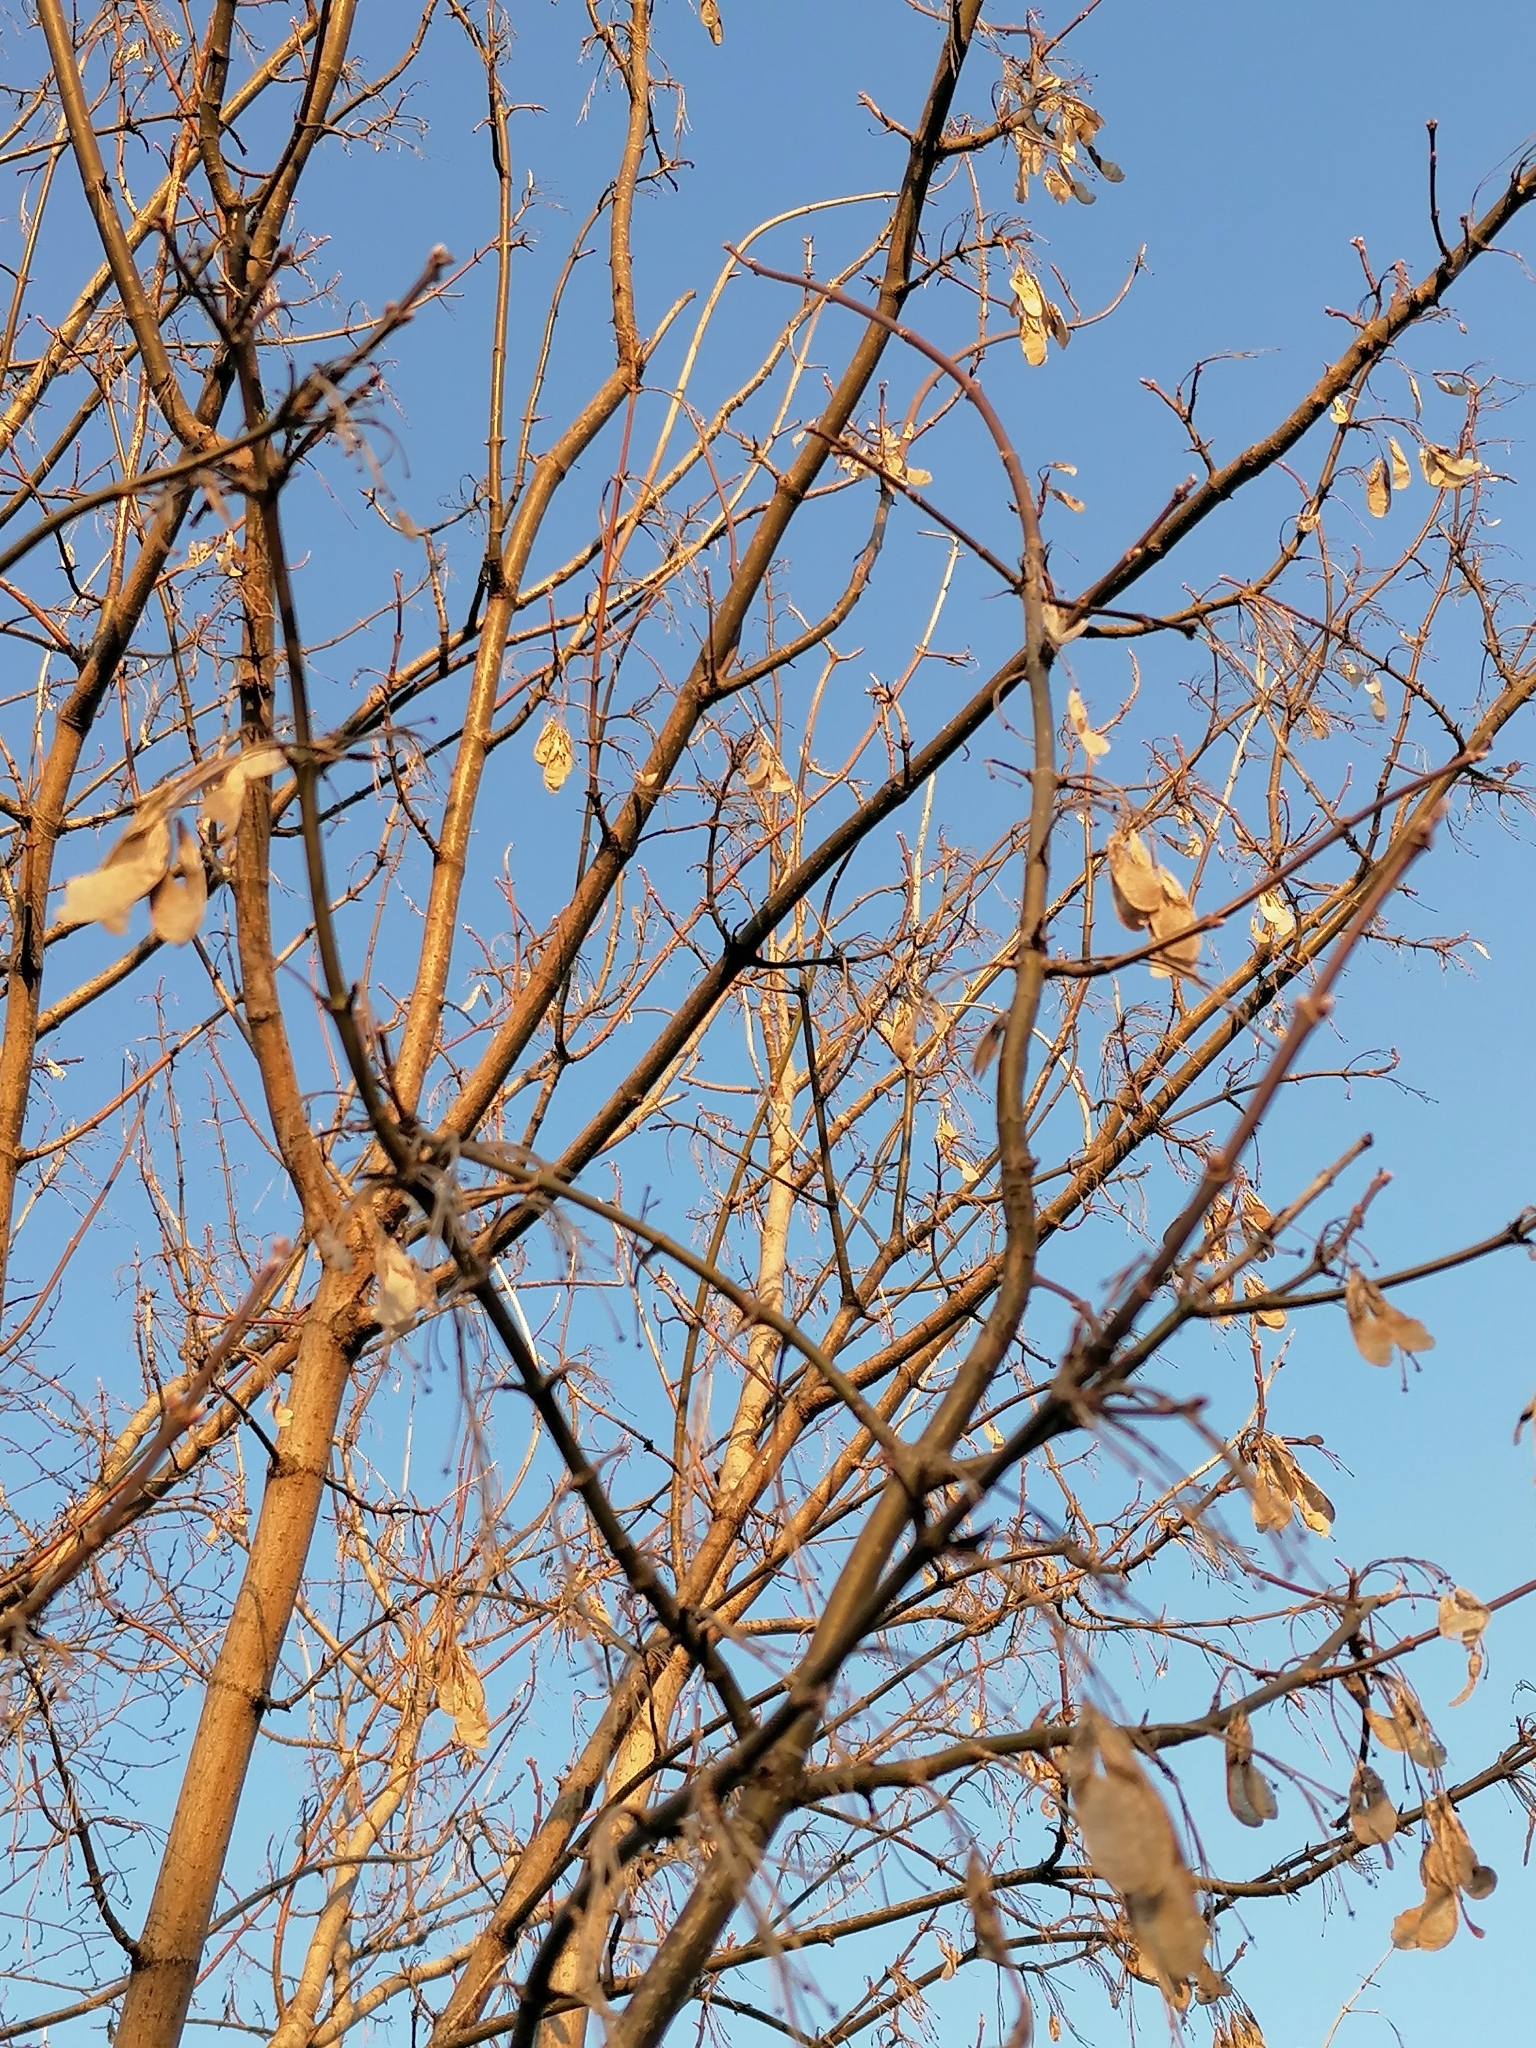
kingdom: Plantae
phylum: Tracheophyta
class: Magnoliopsida
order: Sapindales
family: Sapindaceae
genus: Acer
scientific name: Acer negundo
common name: Ashleaf maple
